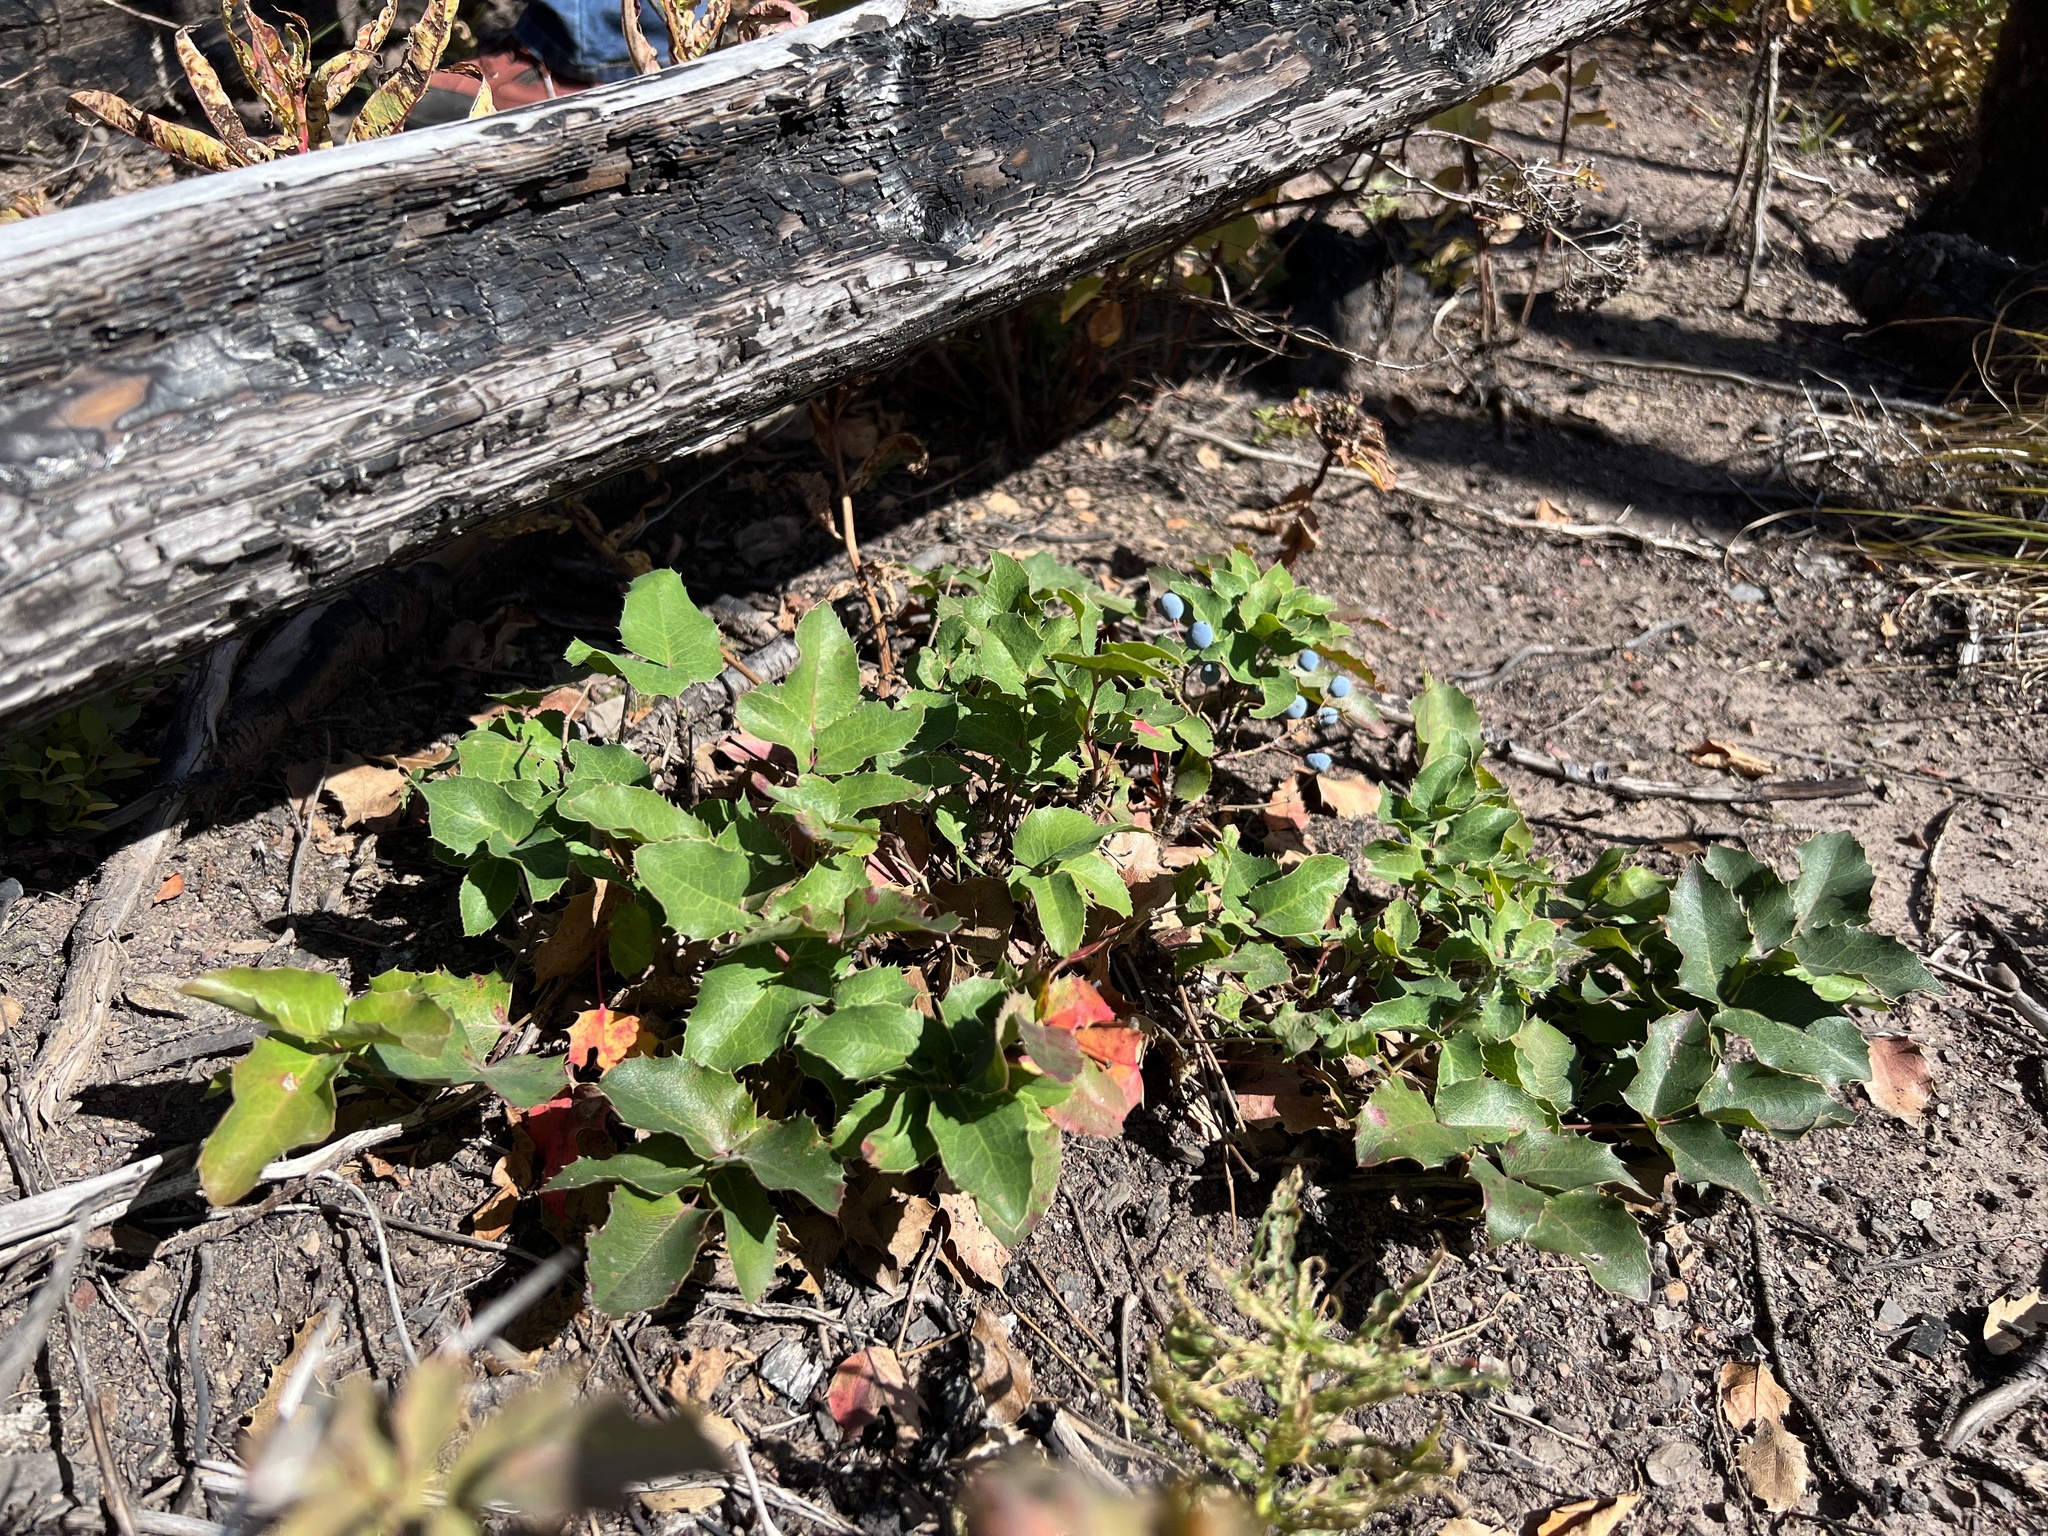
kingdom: Plantae
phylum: Tracheophyta
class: Magnoliopsida
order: Ranunculales
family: Berberidaceae
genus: Mahonia
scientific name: Mahonia repens
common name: Creeping oregon-grape
